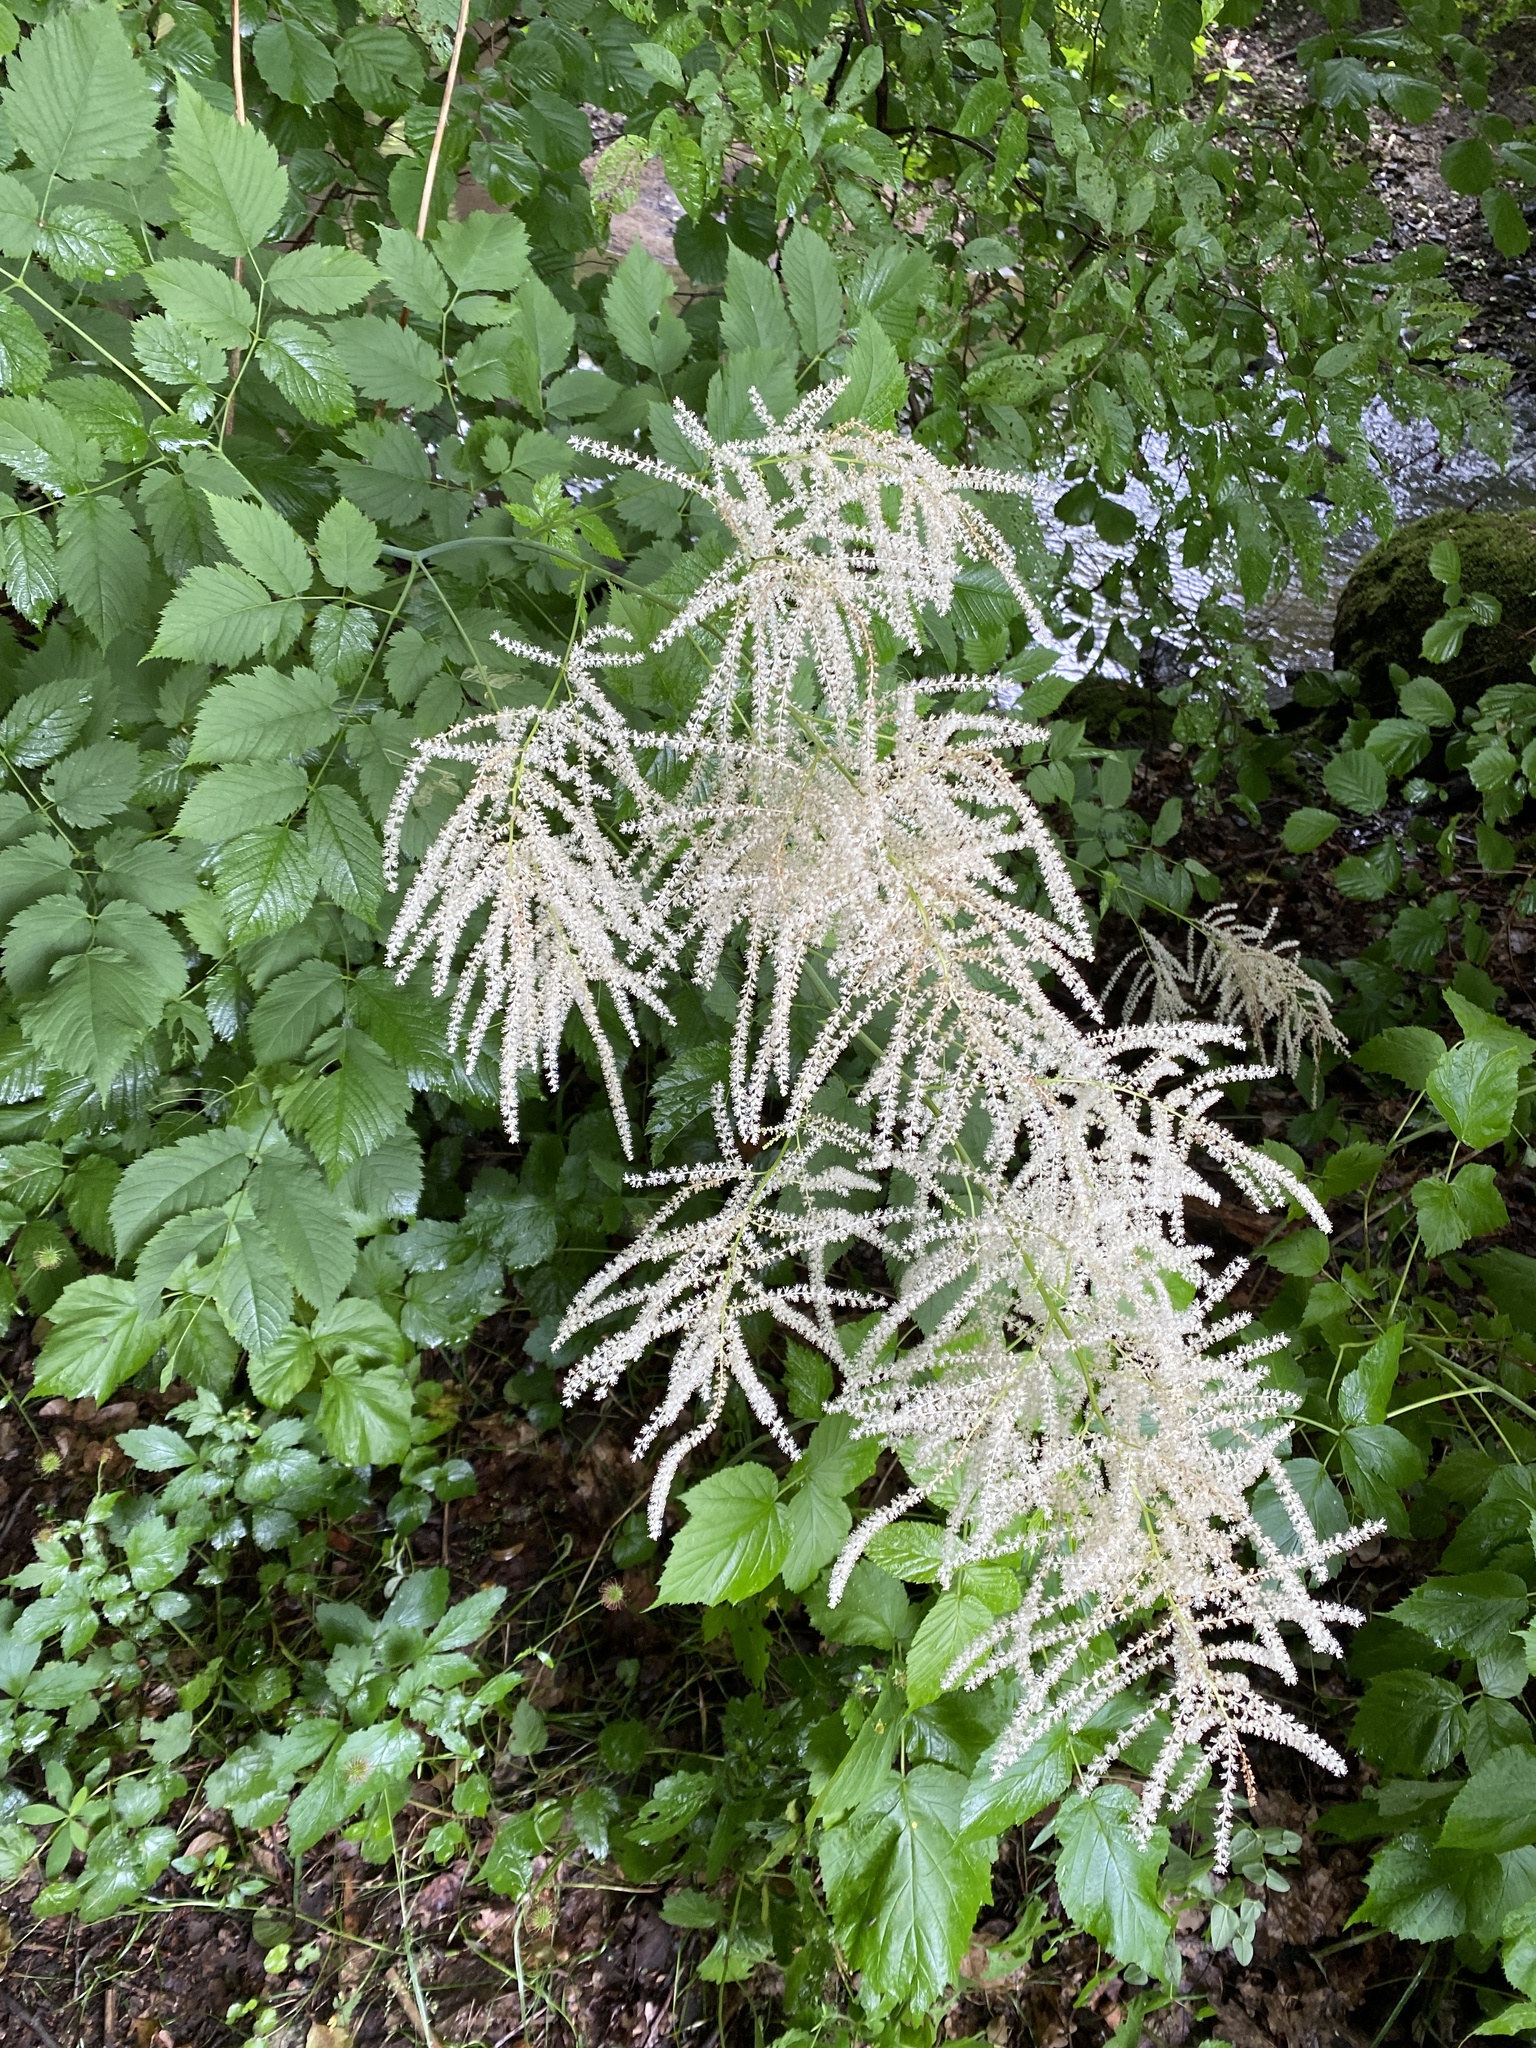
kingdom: Plantae
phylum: Tracheophyta
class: Magnoliopsida
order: Rosales
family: Rosaceae
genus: Aruncus
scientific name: Aruncus dioicus
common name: Buck's-beard
